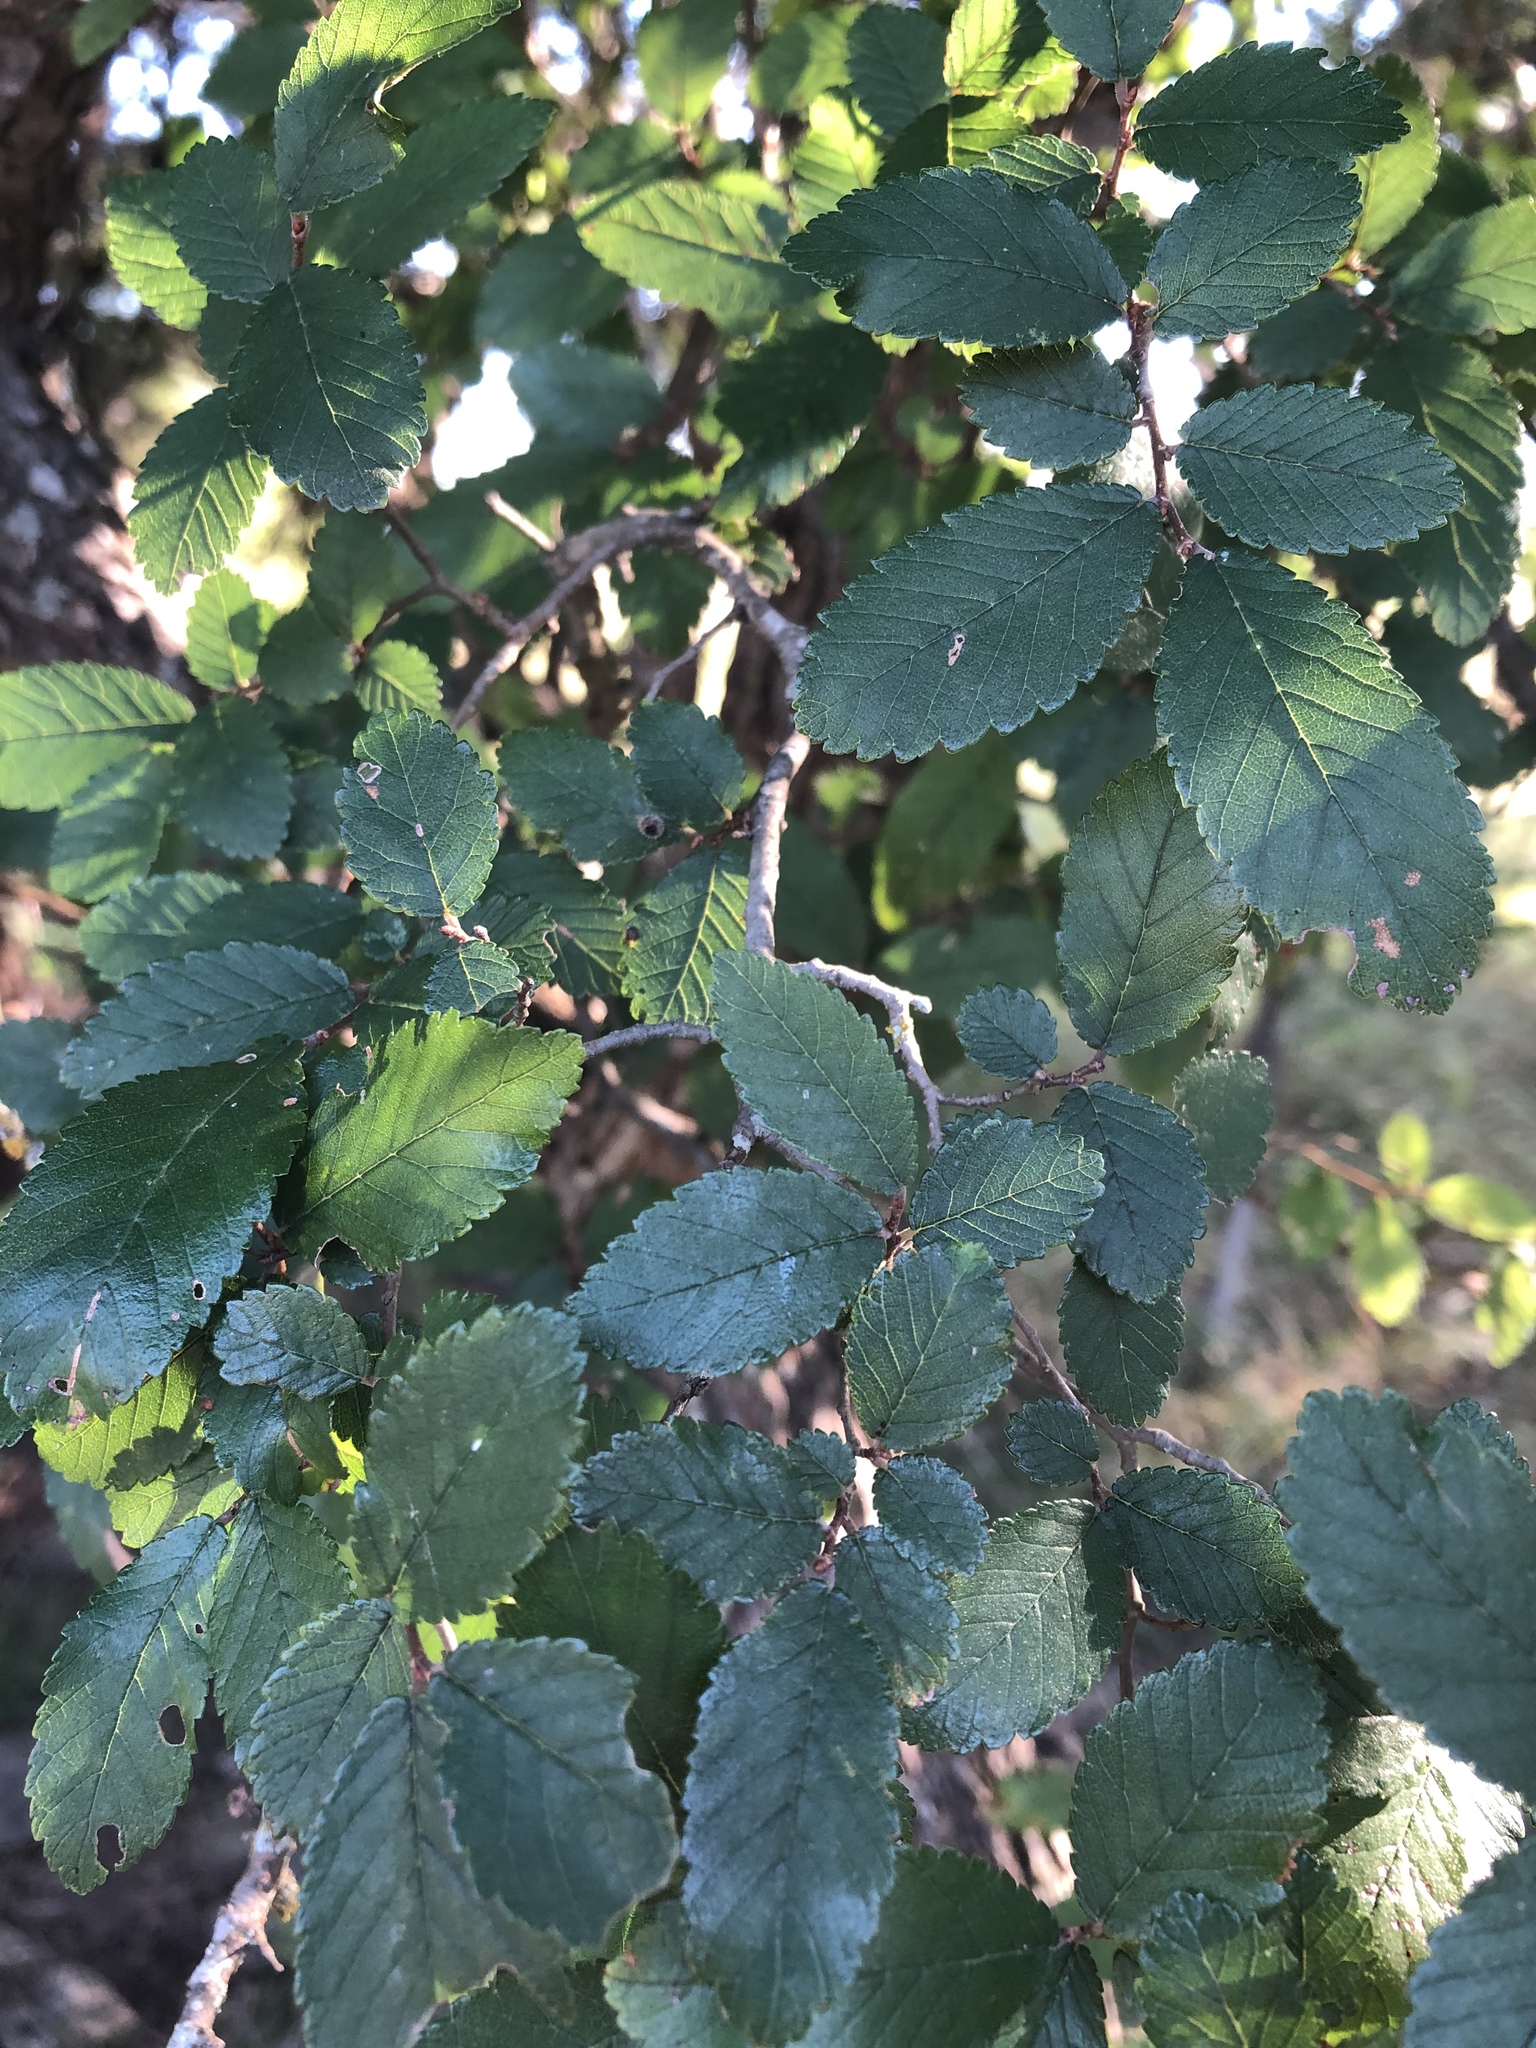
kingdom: Plantae
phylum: Tracheophyta
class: Magnoliopsida
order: Rosales
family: Ulmaceae
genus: Ulmus
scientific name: Ulmus crassifolia
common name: Basket elm
